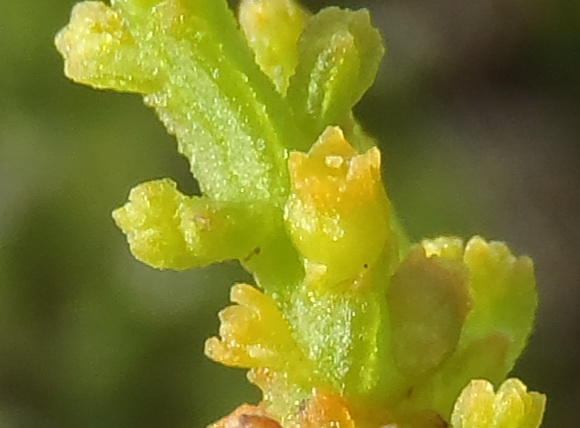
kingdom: Plantae
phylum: Tracheophyta
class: Magnoliopsida
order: Santalales
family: Thesiaceae
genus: Thesium
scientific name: Thesium fragile
